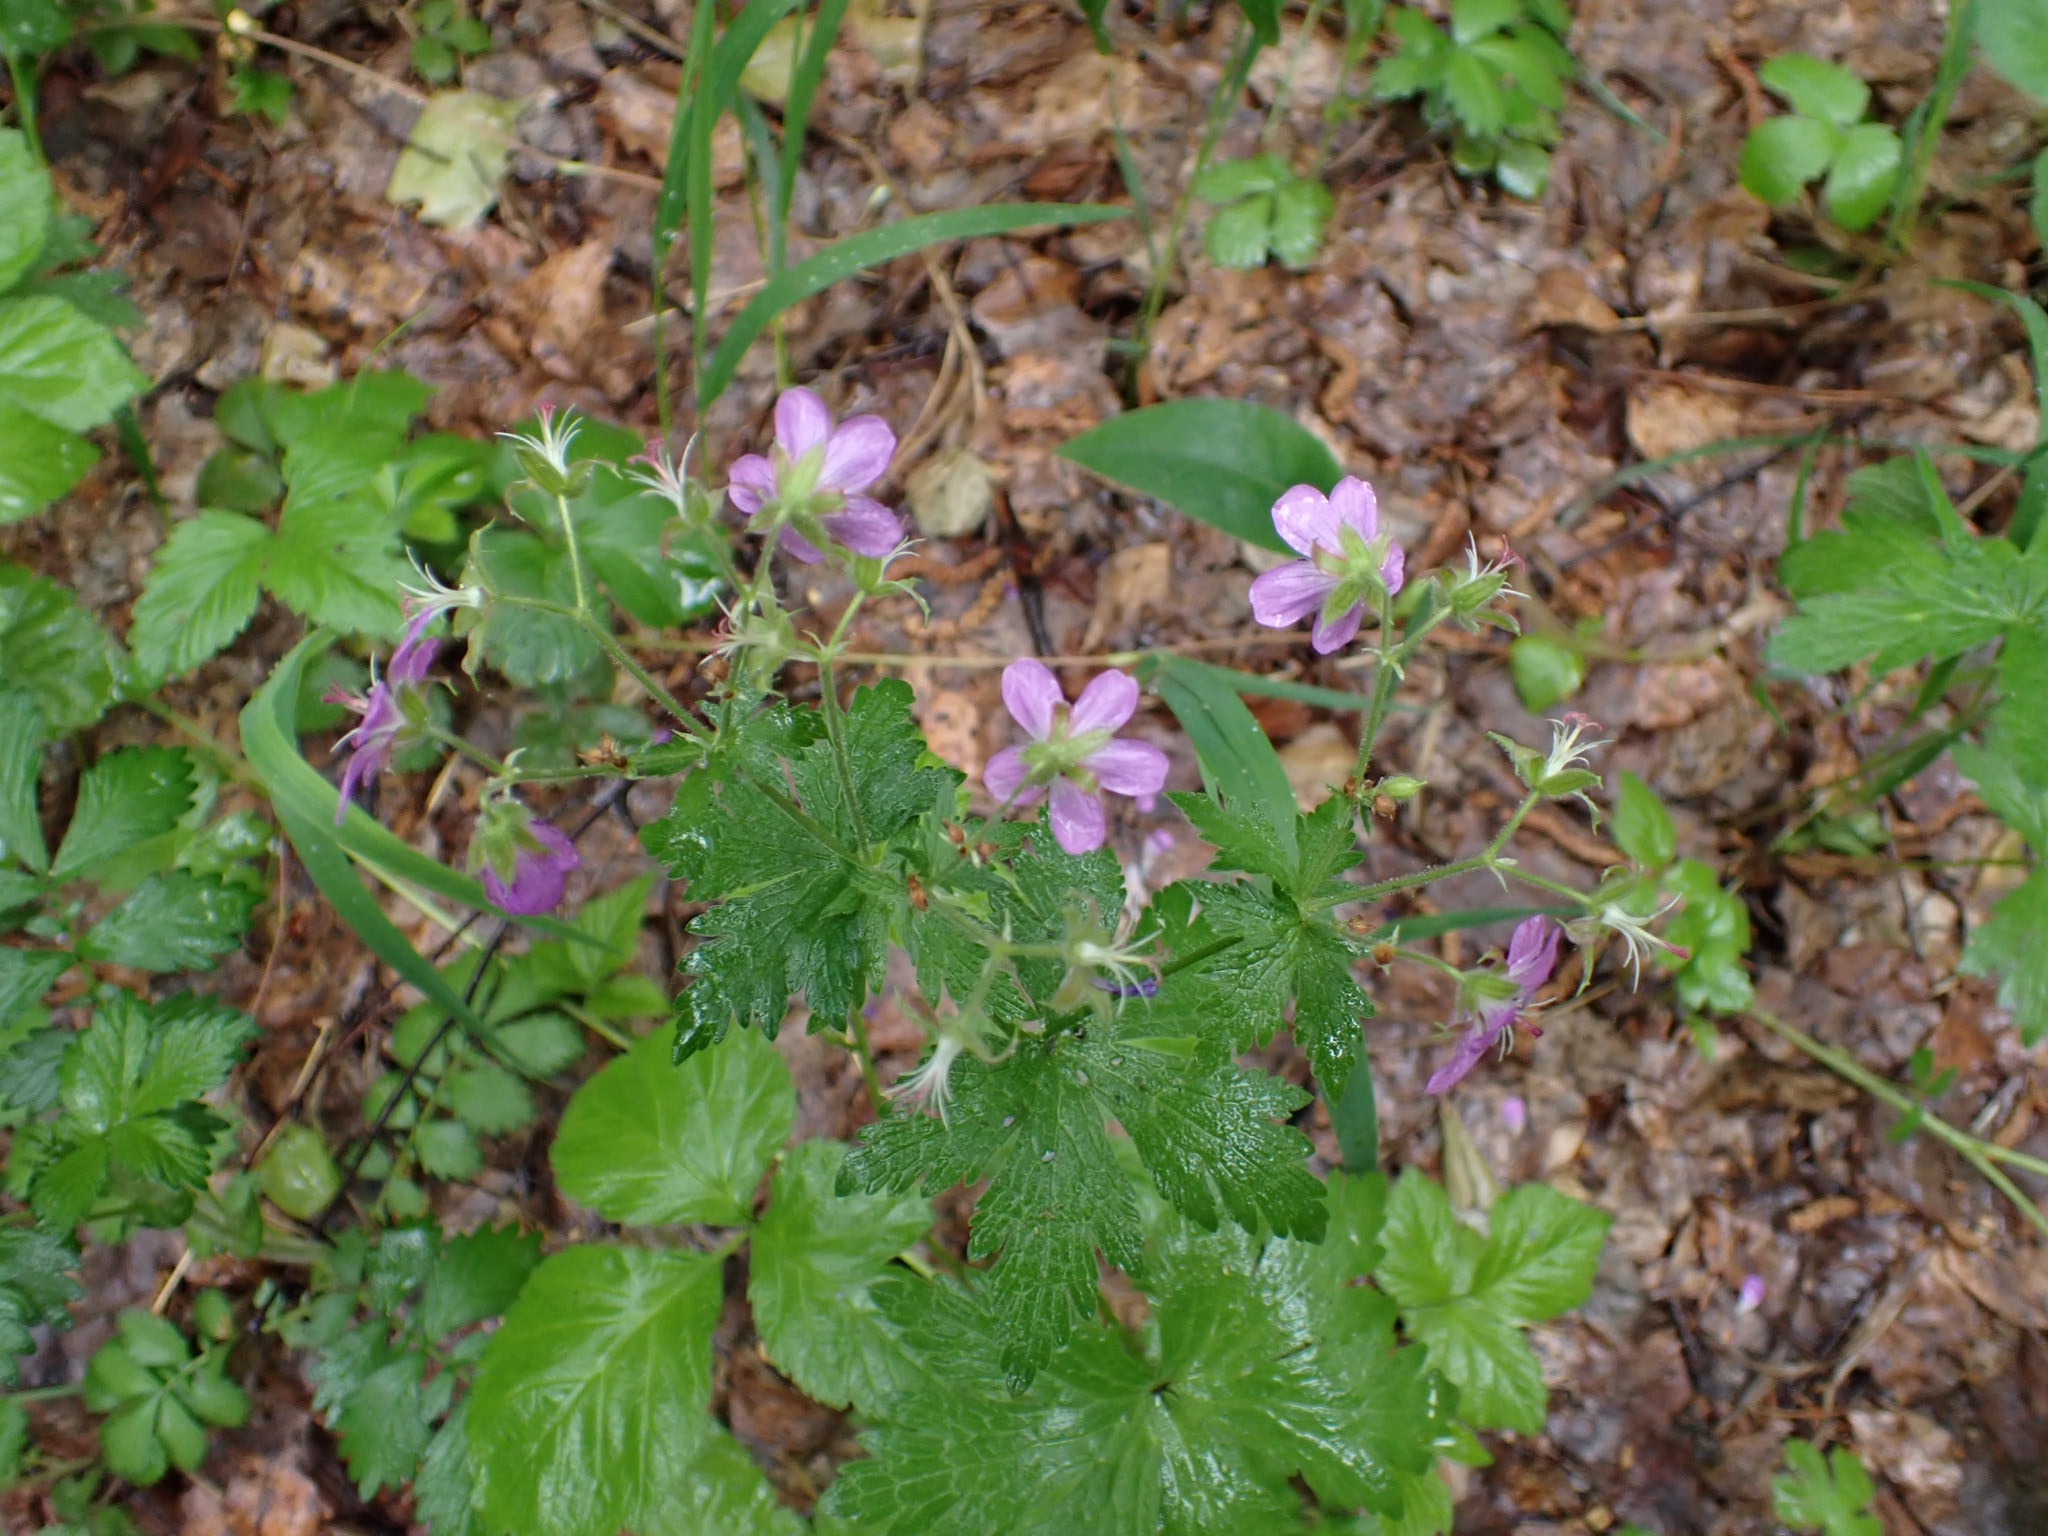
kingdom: Plantae
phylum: Tracheophyta
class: Magnoliopsida
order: Geraniales
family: Geraniaceae
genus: Geranium
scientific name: Geranium sylvaticum
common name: Wood crane's-bill
